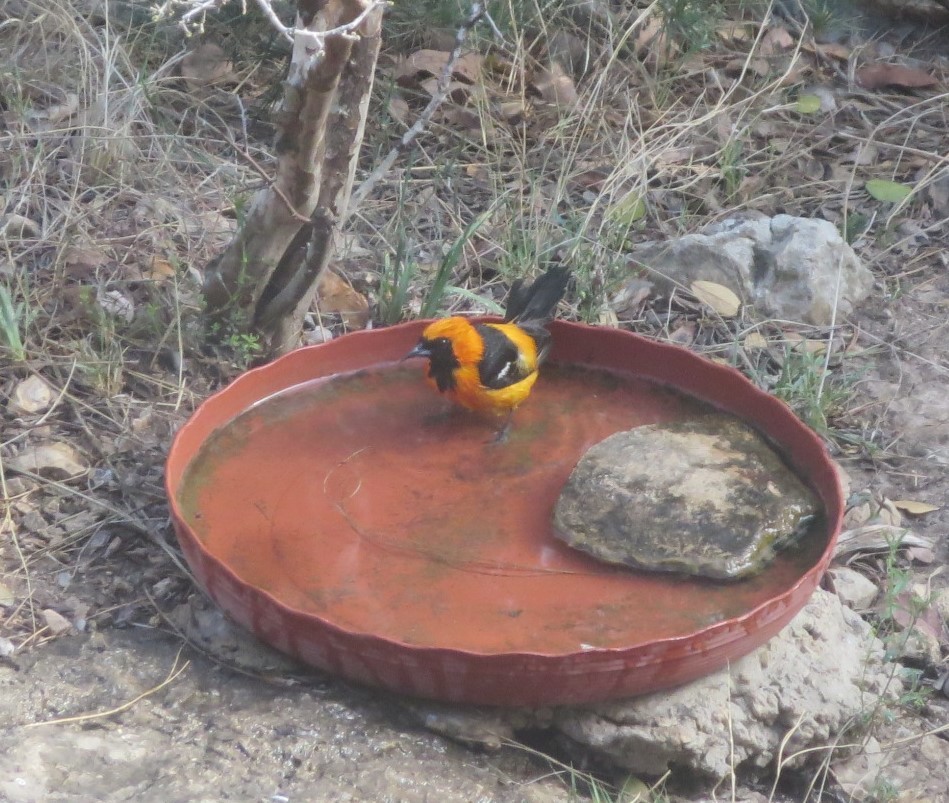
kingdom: Animalia
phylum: Chordata
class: Aves
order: Passeriformes
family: Icteridae
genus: Icterus
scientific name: Icterus cucullatus
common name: Hooded oriole
